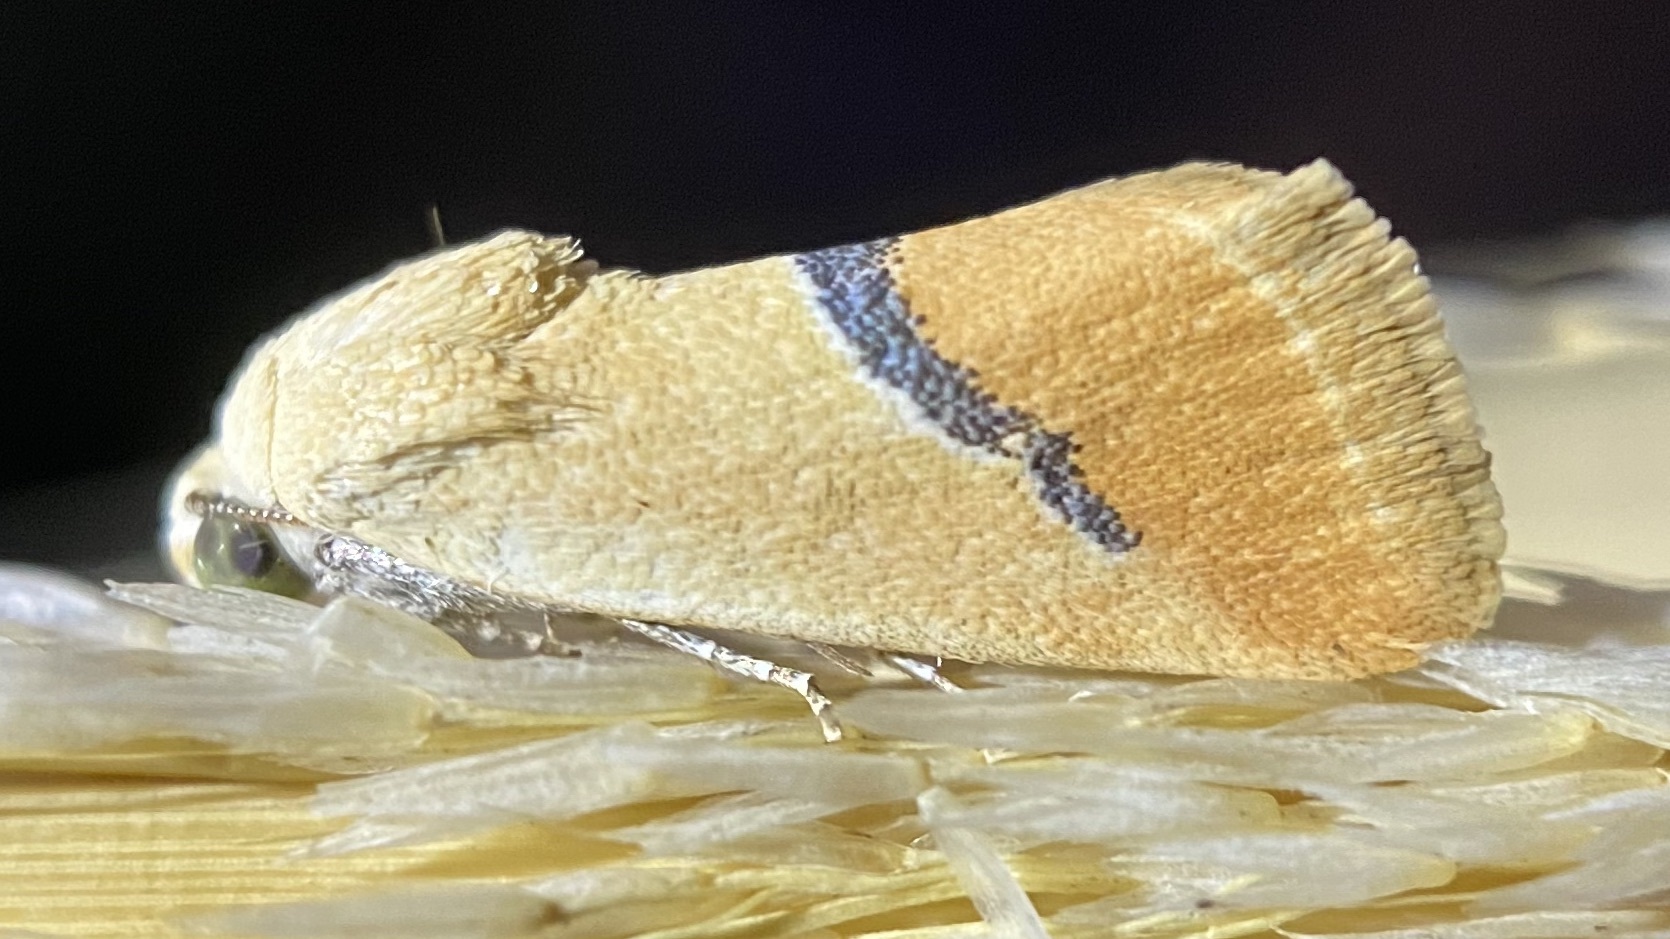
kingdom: Animalia
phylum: Arthropoda
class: Insecta
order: Lepidoptera
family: Noctuidae
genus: Ponometia
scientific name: Ponometia venustula
